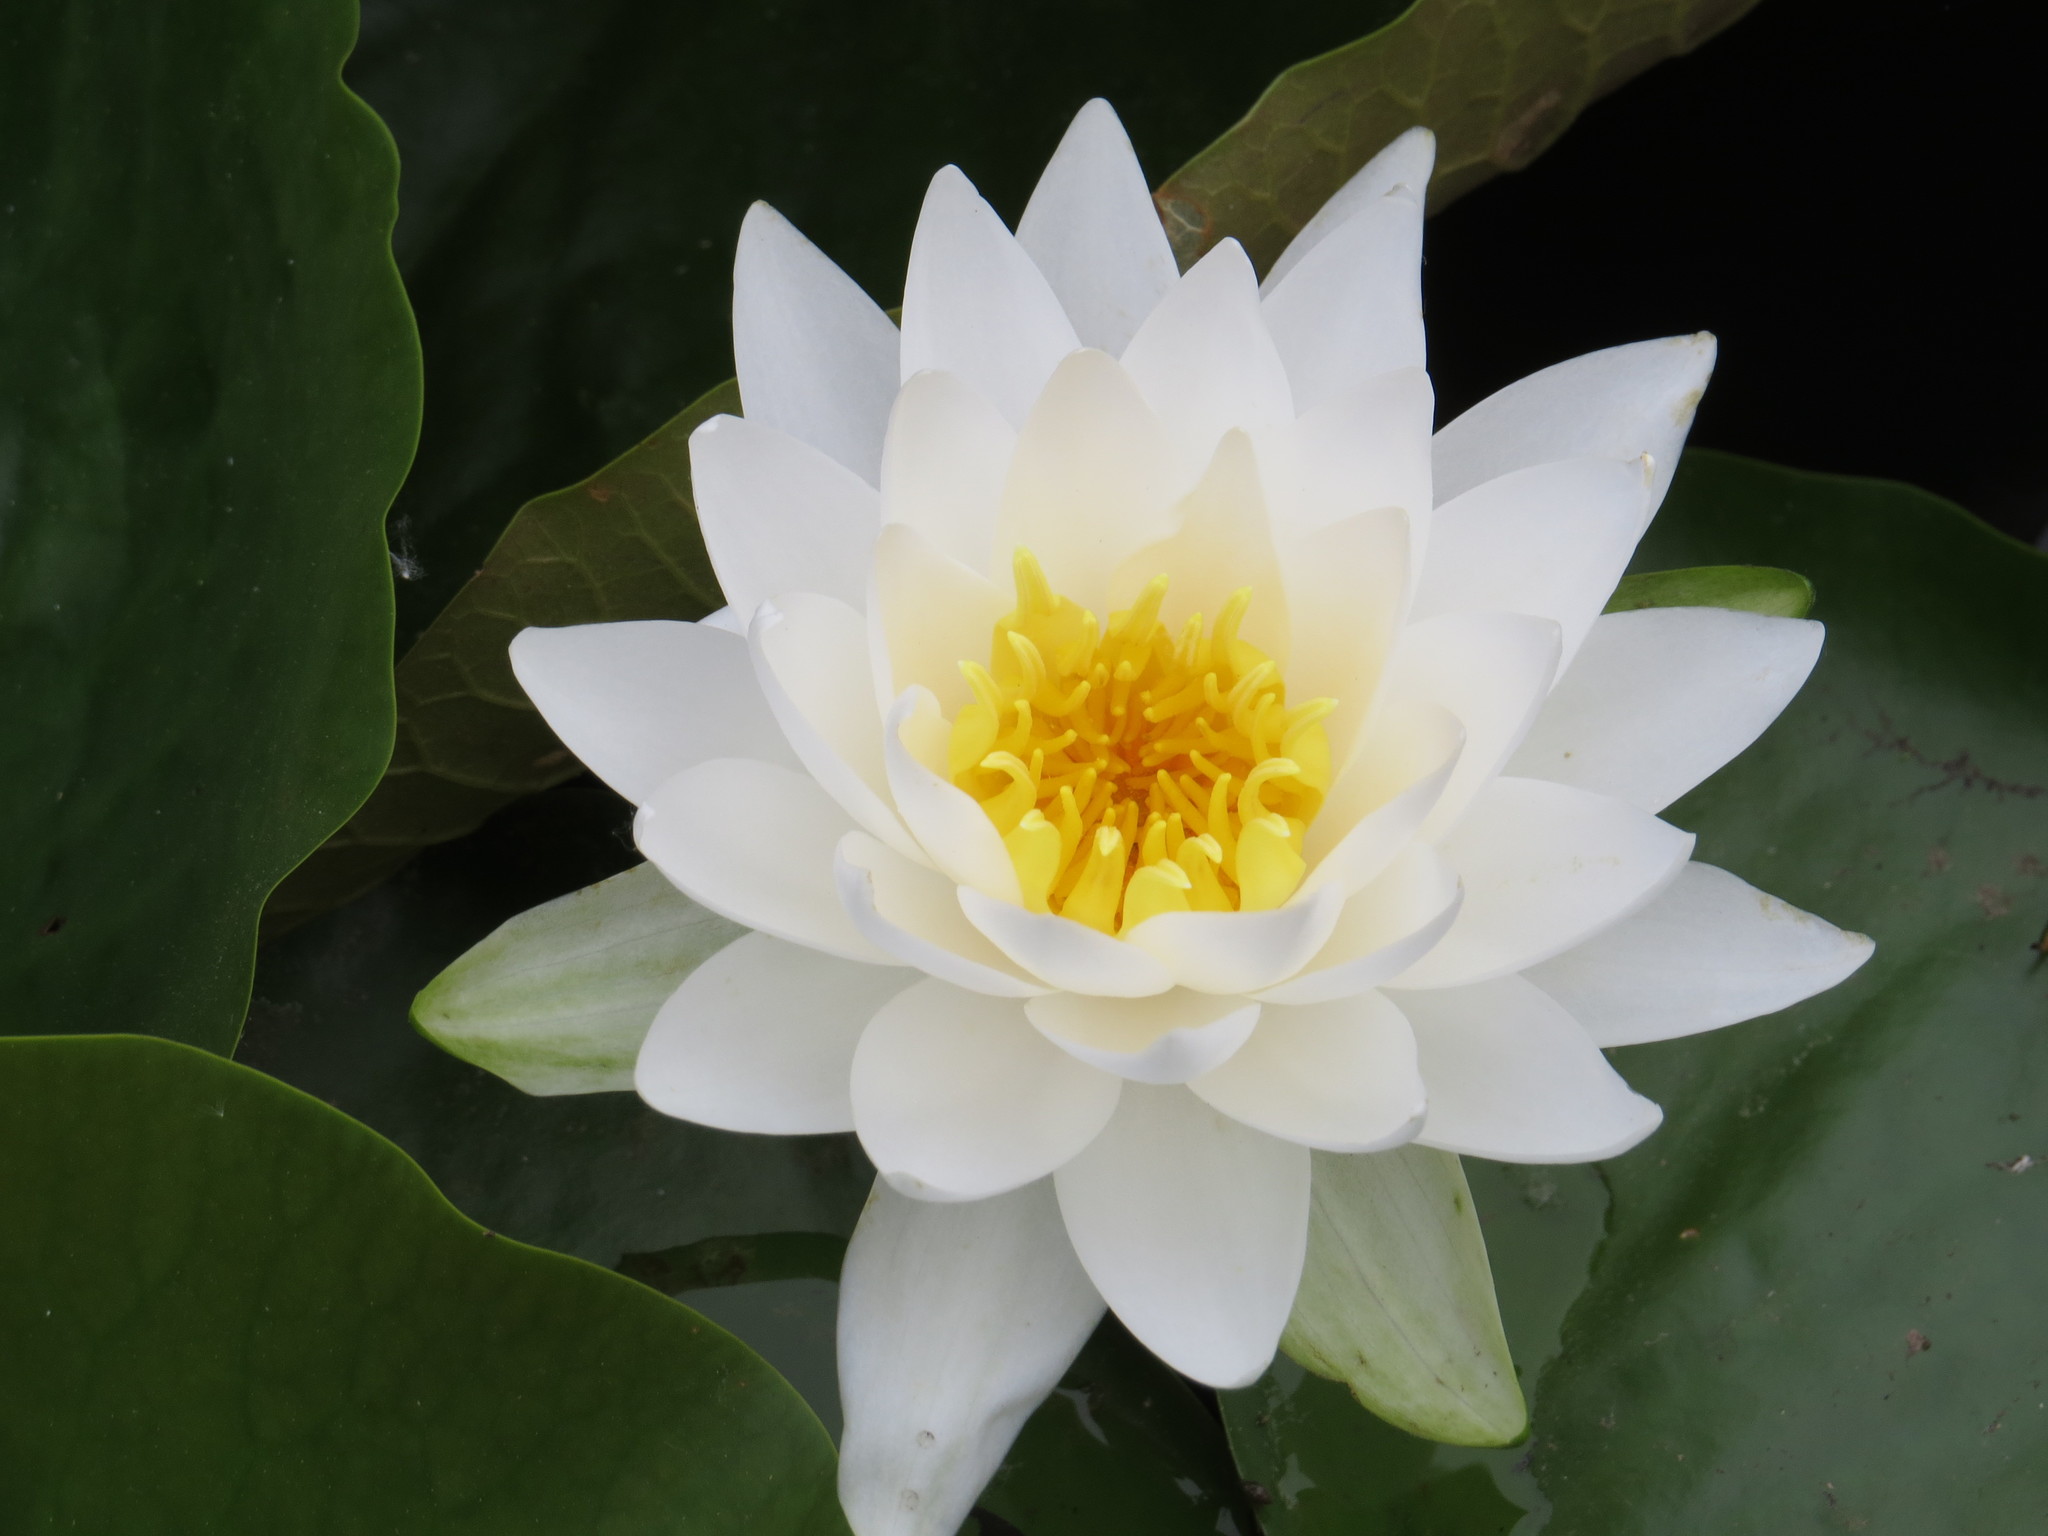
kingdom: Plantae
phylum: Tracheophyta
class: Magnoliopsida
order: Nymphaeales
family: Nymphaeaceae
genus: Nymphaea
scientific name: Nymphaea odorata
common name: Fragrant water-lily
